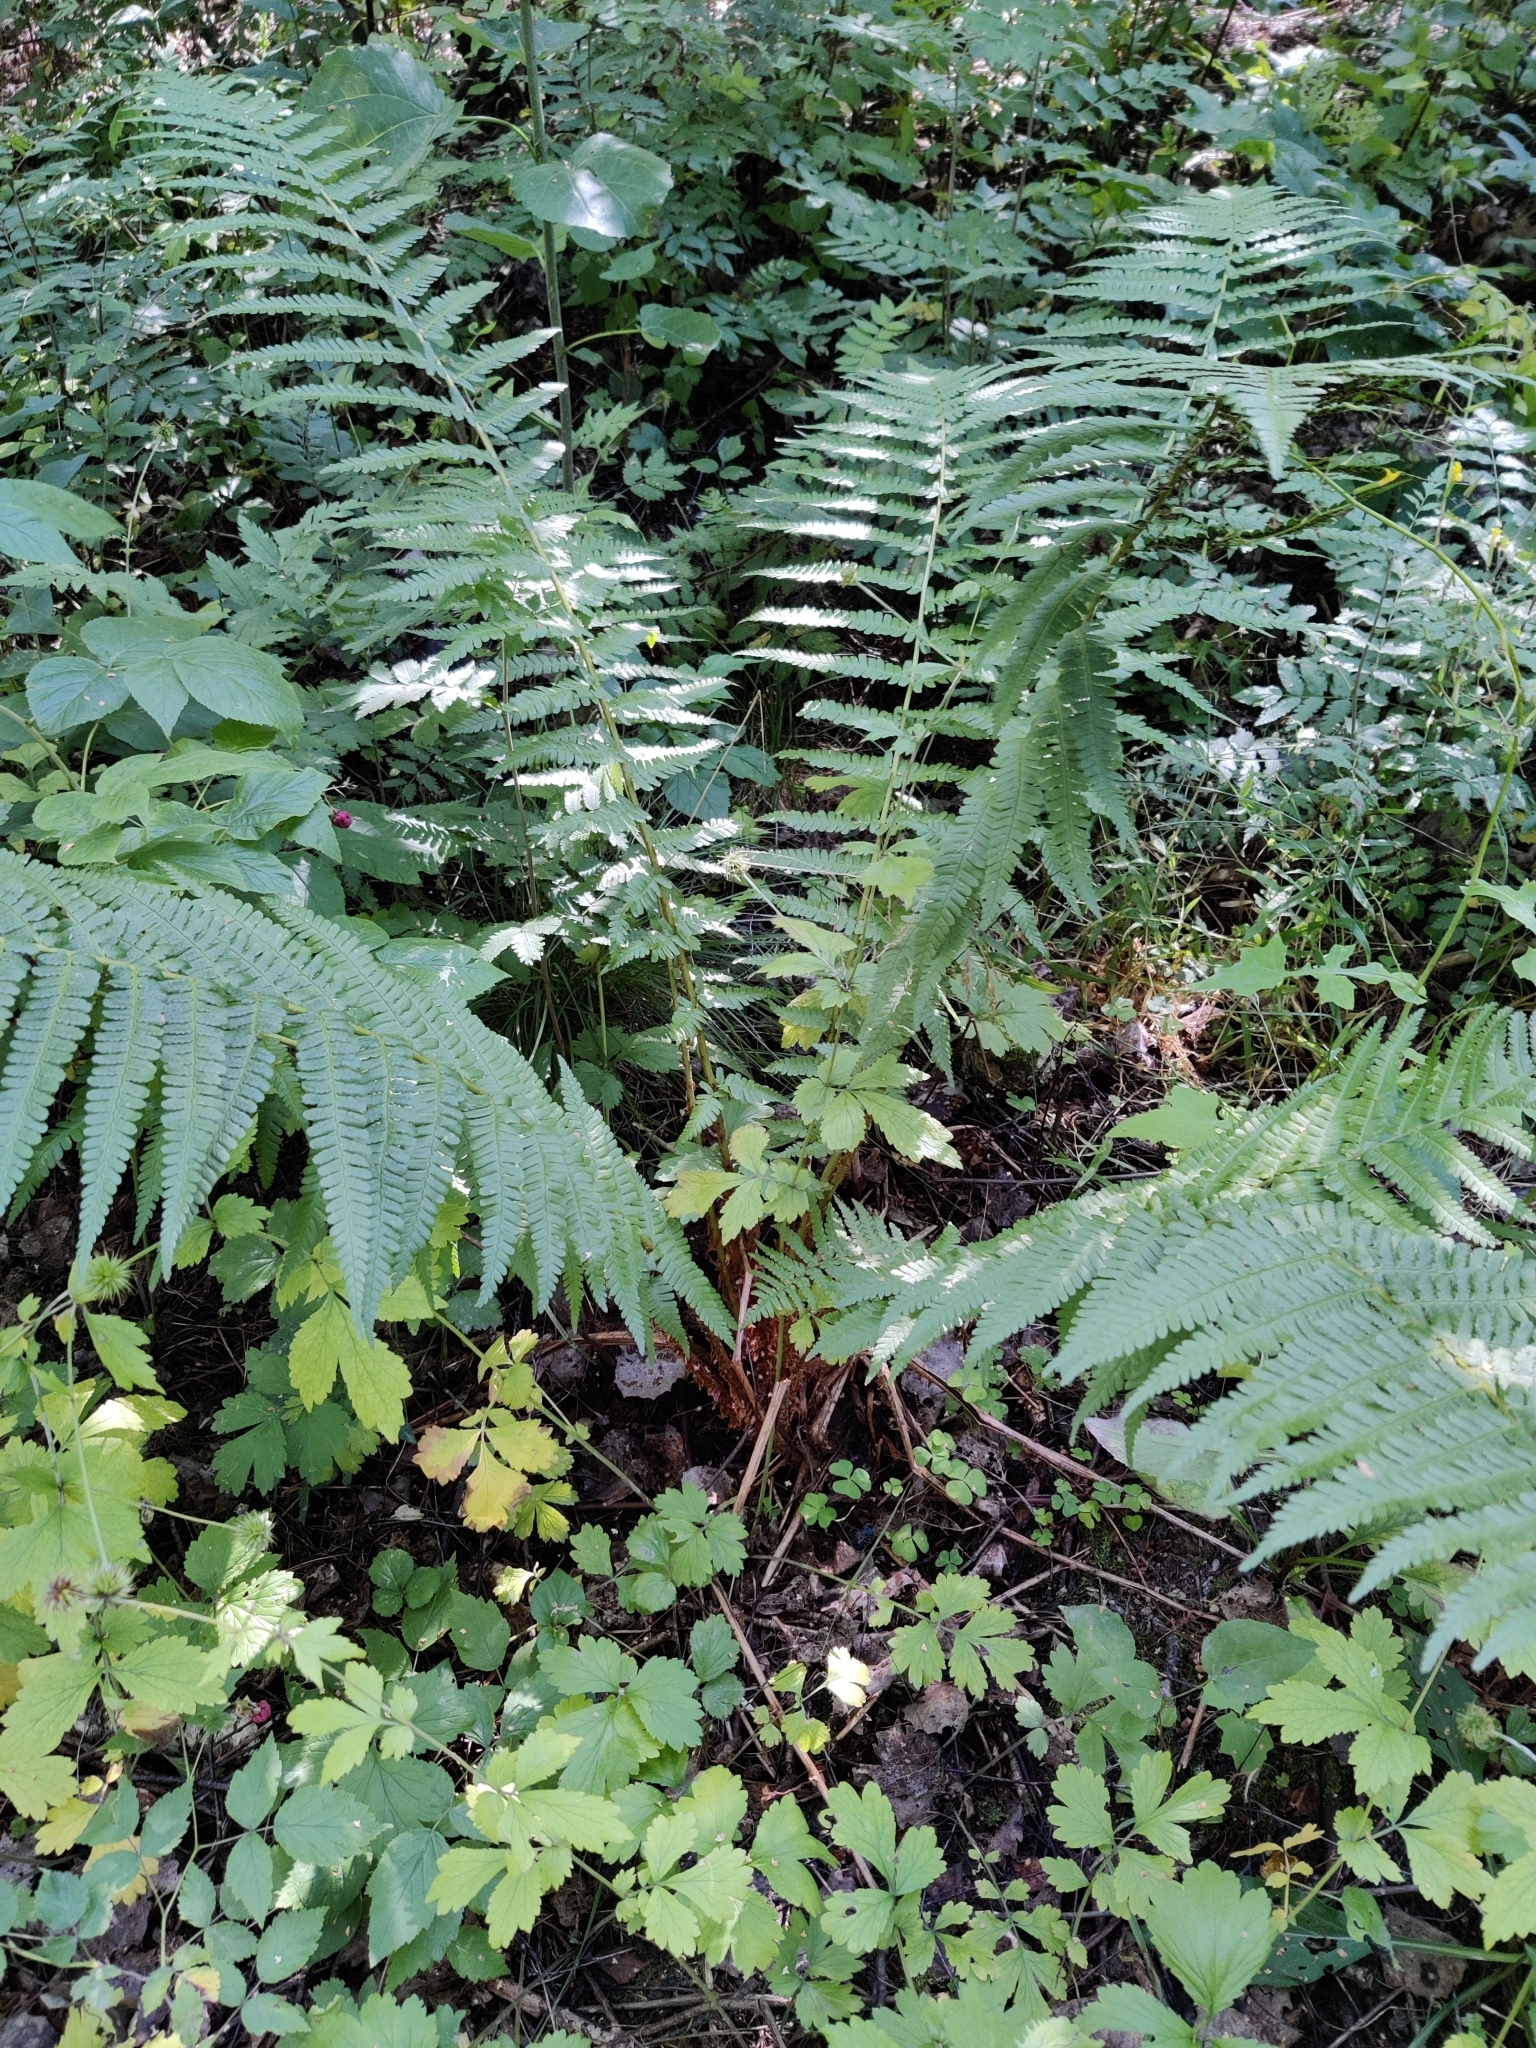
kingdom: Plantae
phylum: Tracheophyta
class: Polypodiopsida
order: Polypodiales
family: Dryopteridaceae
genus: Dryopteris
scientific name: Dryopteris filix-mas
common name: Male fern
